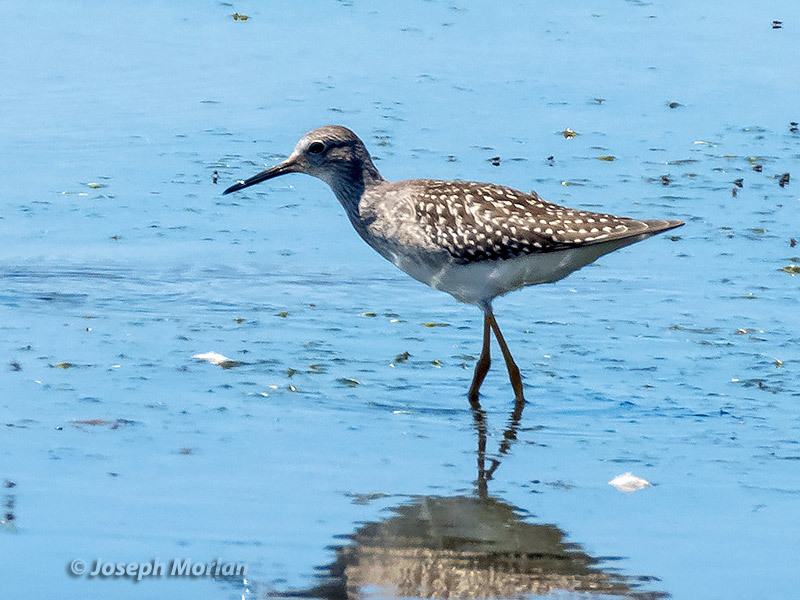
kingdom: Animalia
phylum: Chordata
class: Aves
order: Charadriiformes
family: Scolopacidae
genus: Tringa
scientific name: Tringa flavipes
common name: Lesser yellowlegs
